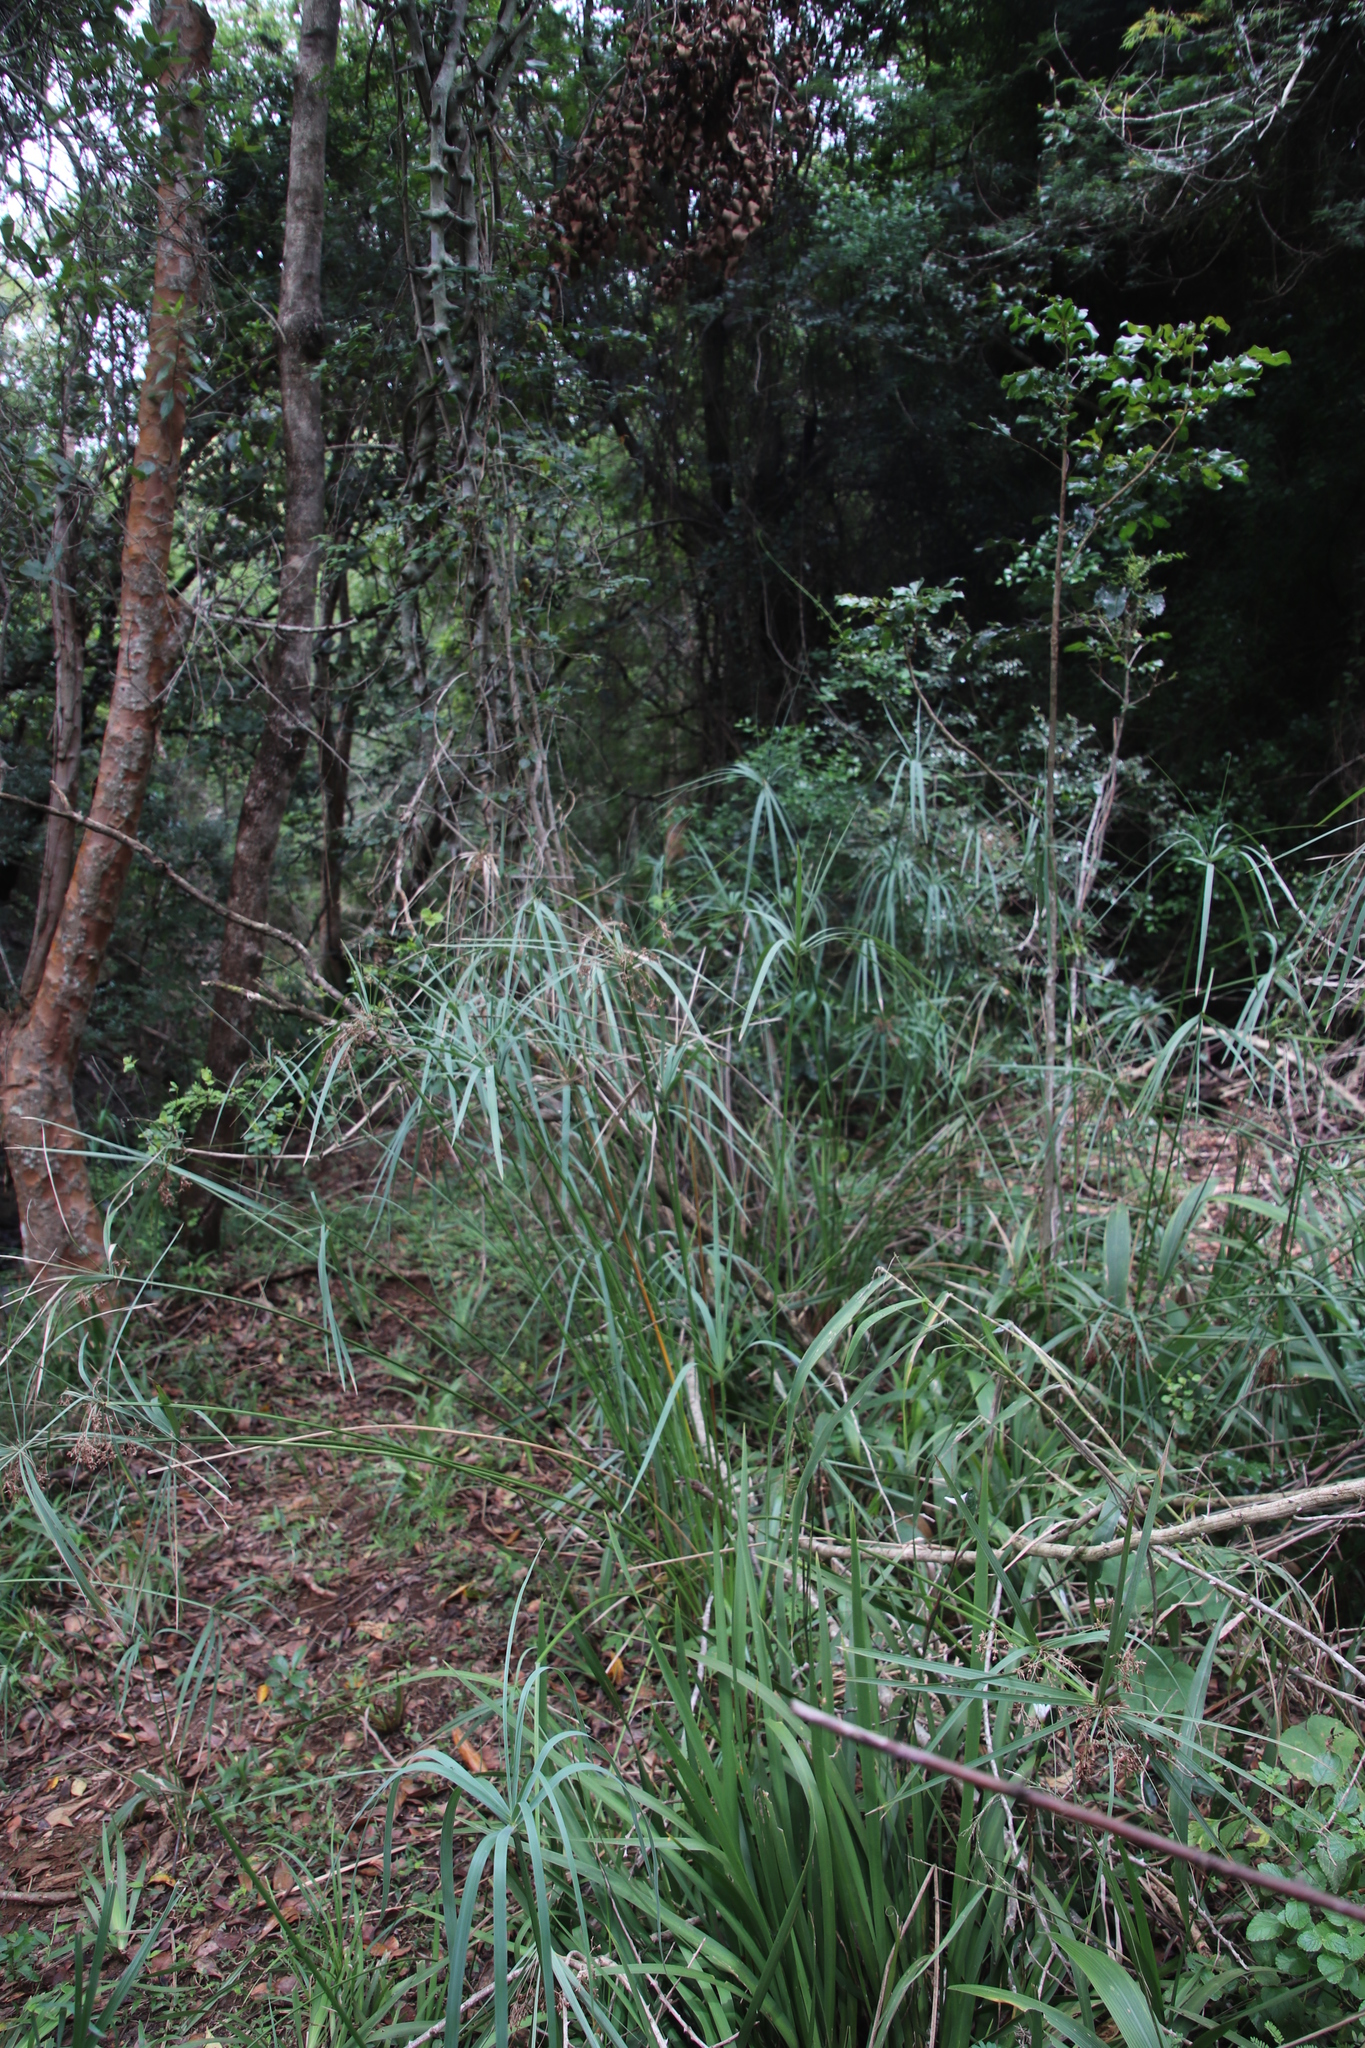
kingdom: Plantae
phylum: Tracheophyta
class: Liliopsida
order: Poales
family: Cyperaceae
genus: Cyperus
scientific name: Cyperus sexangularis
